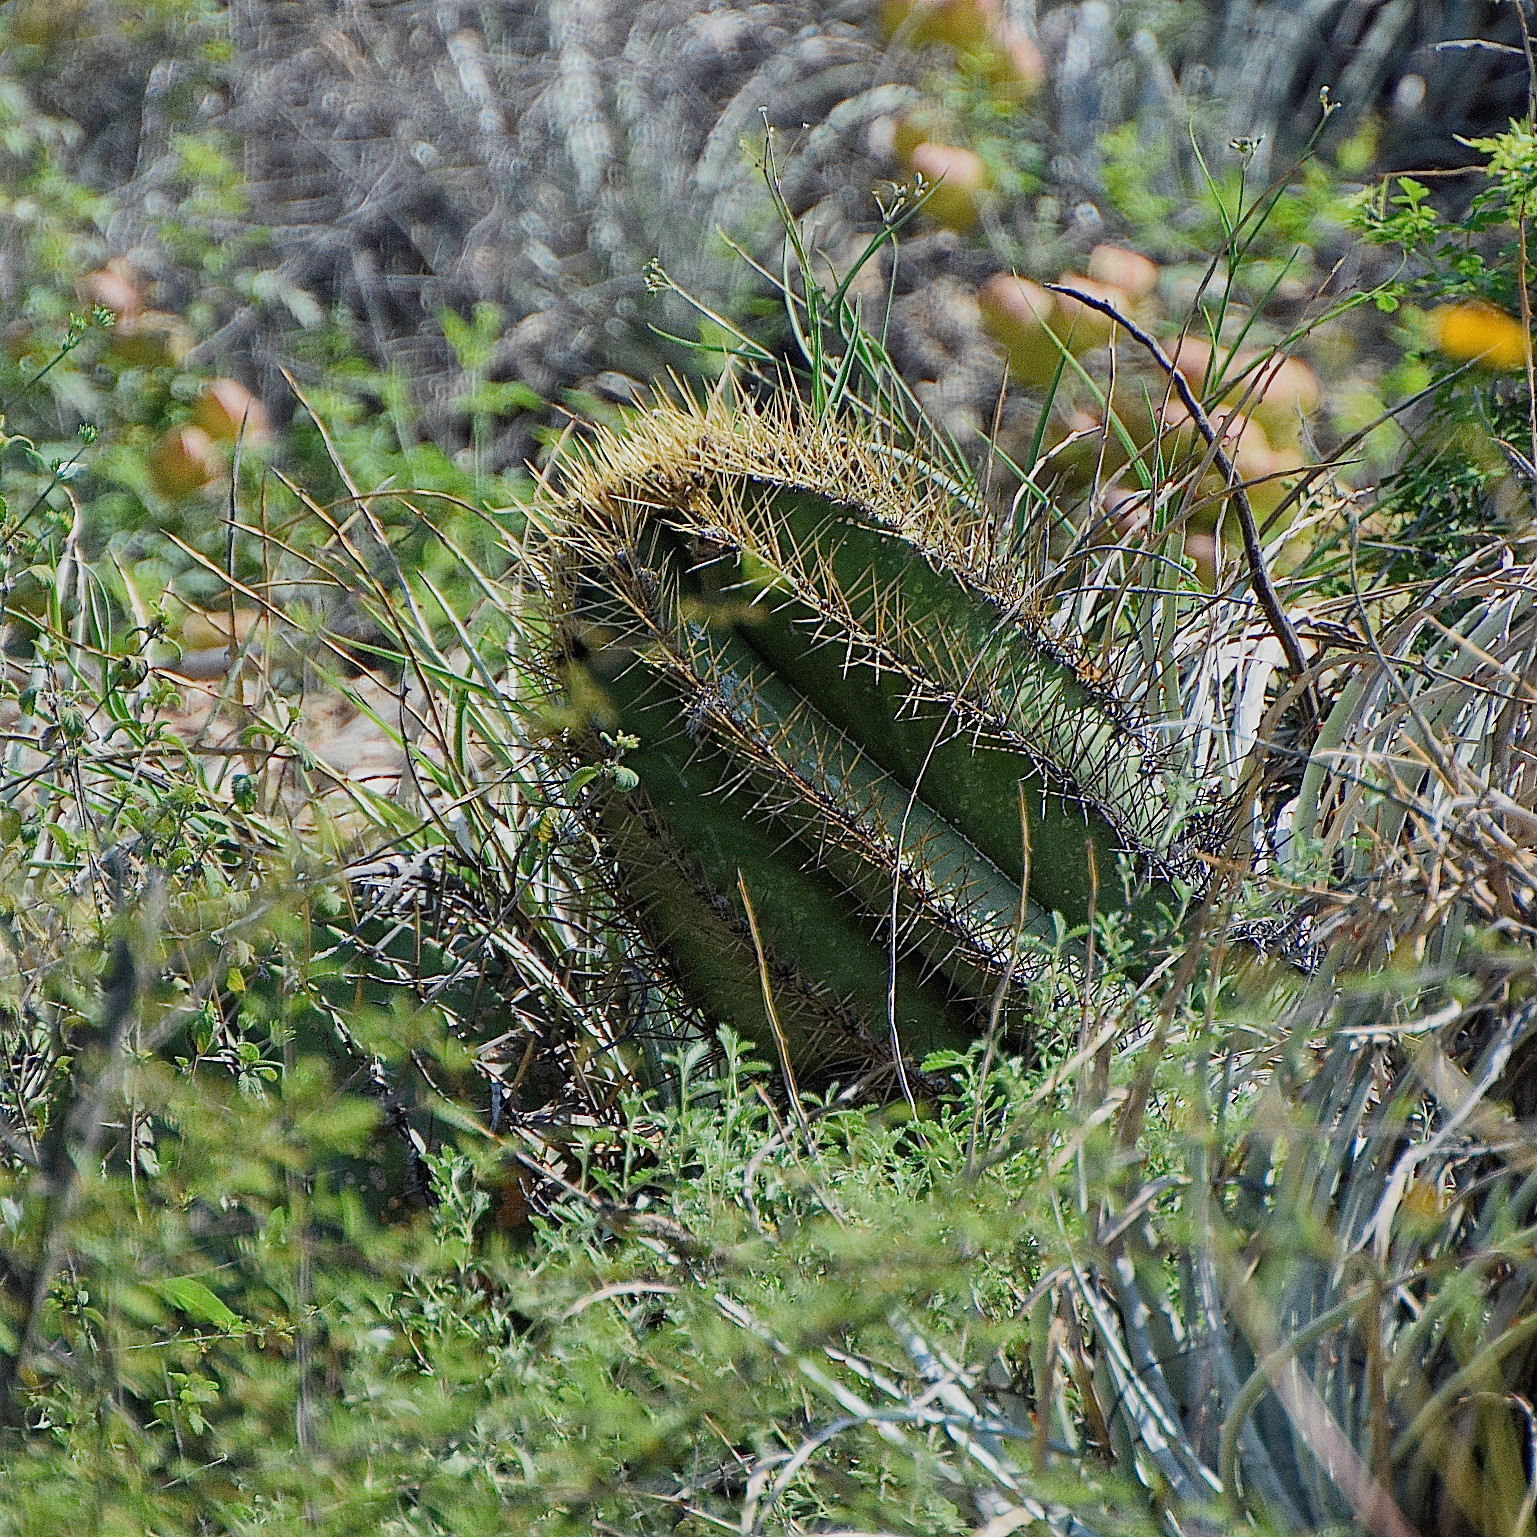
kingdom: Plantae
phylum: Tracheophyta
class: Magnoliopsida
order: Caryophyllales
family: Cactaceae
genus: Astrophytum
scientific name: Astrophytum ornatum
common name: Monk's-hood
